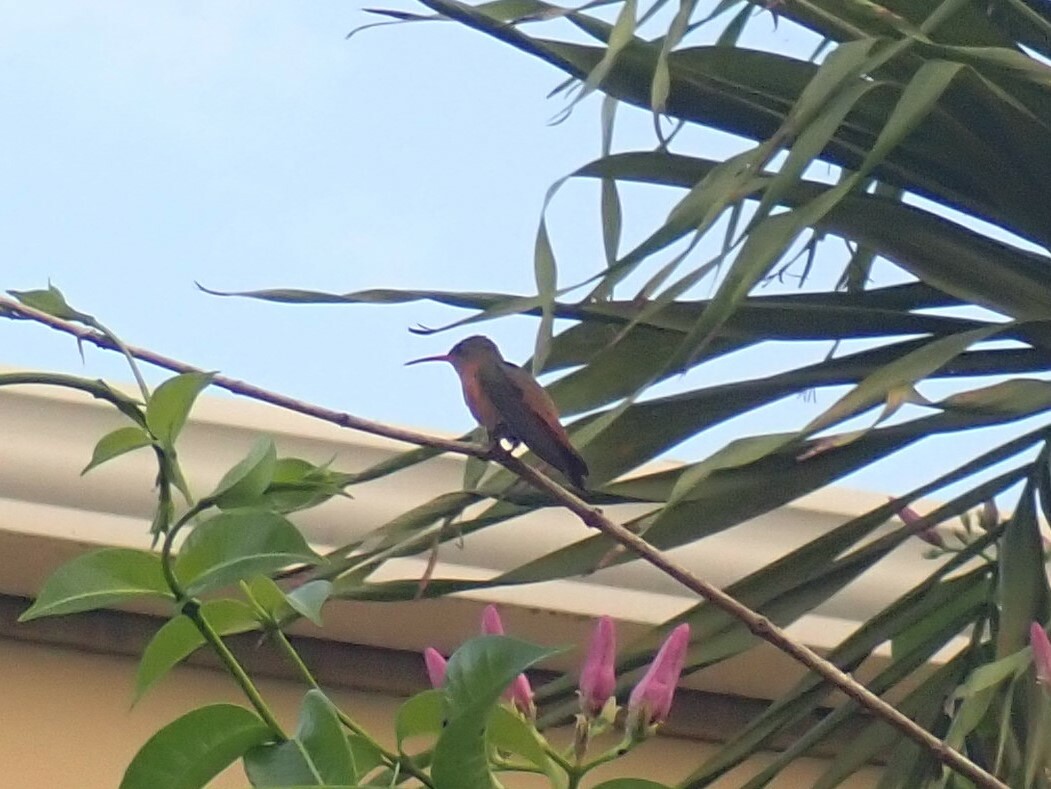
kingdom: Animalia
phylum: Chordata
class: Aves
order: Apodiformes
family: Trochilidae
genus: Amazilia
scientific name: Amazilia rutila
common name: Cinnamon hummingbird
